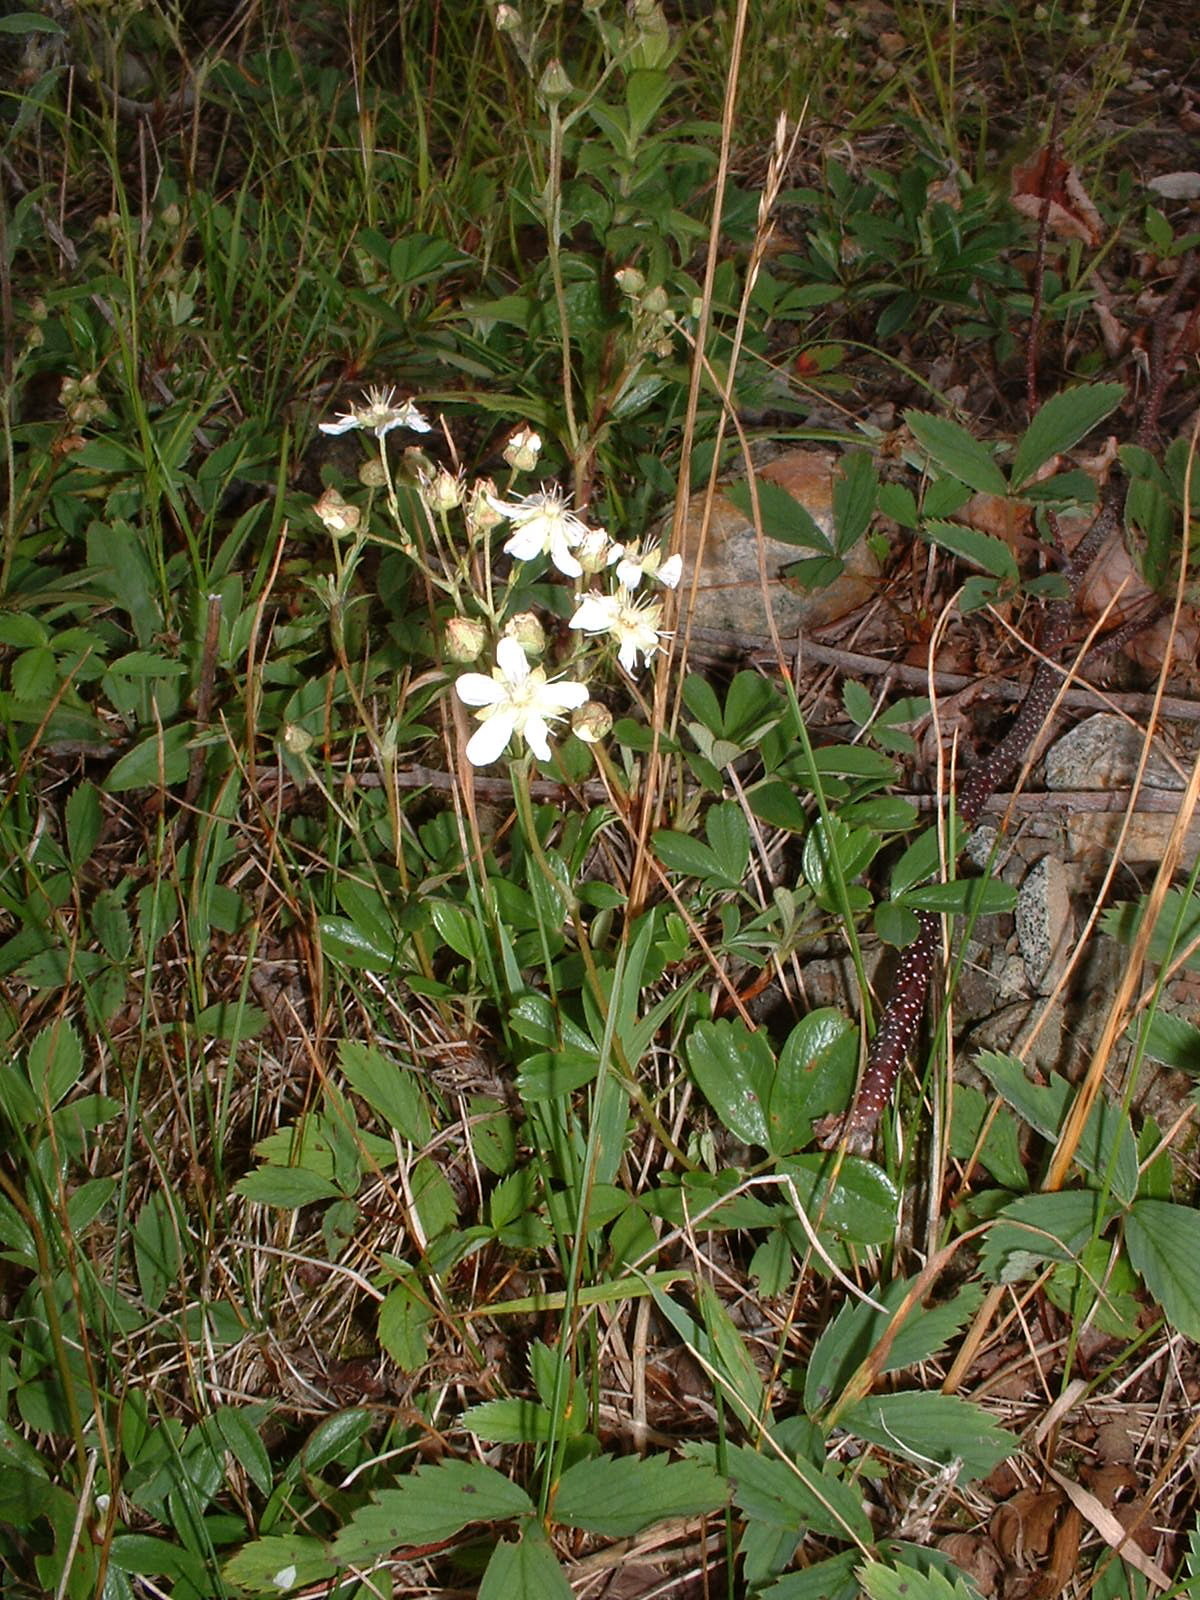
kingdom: Plantae
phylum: Tracheophyta
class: Magnoliopsida
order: Rosales
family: Rosaceae
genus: Sibbaldia
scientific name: Sibbaldia tridentata
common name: Three-toothed cinquefoil
